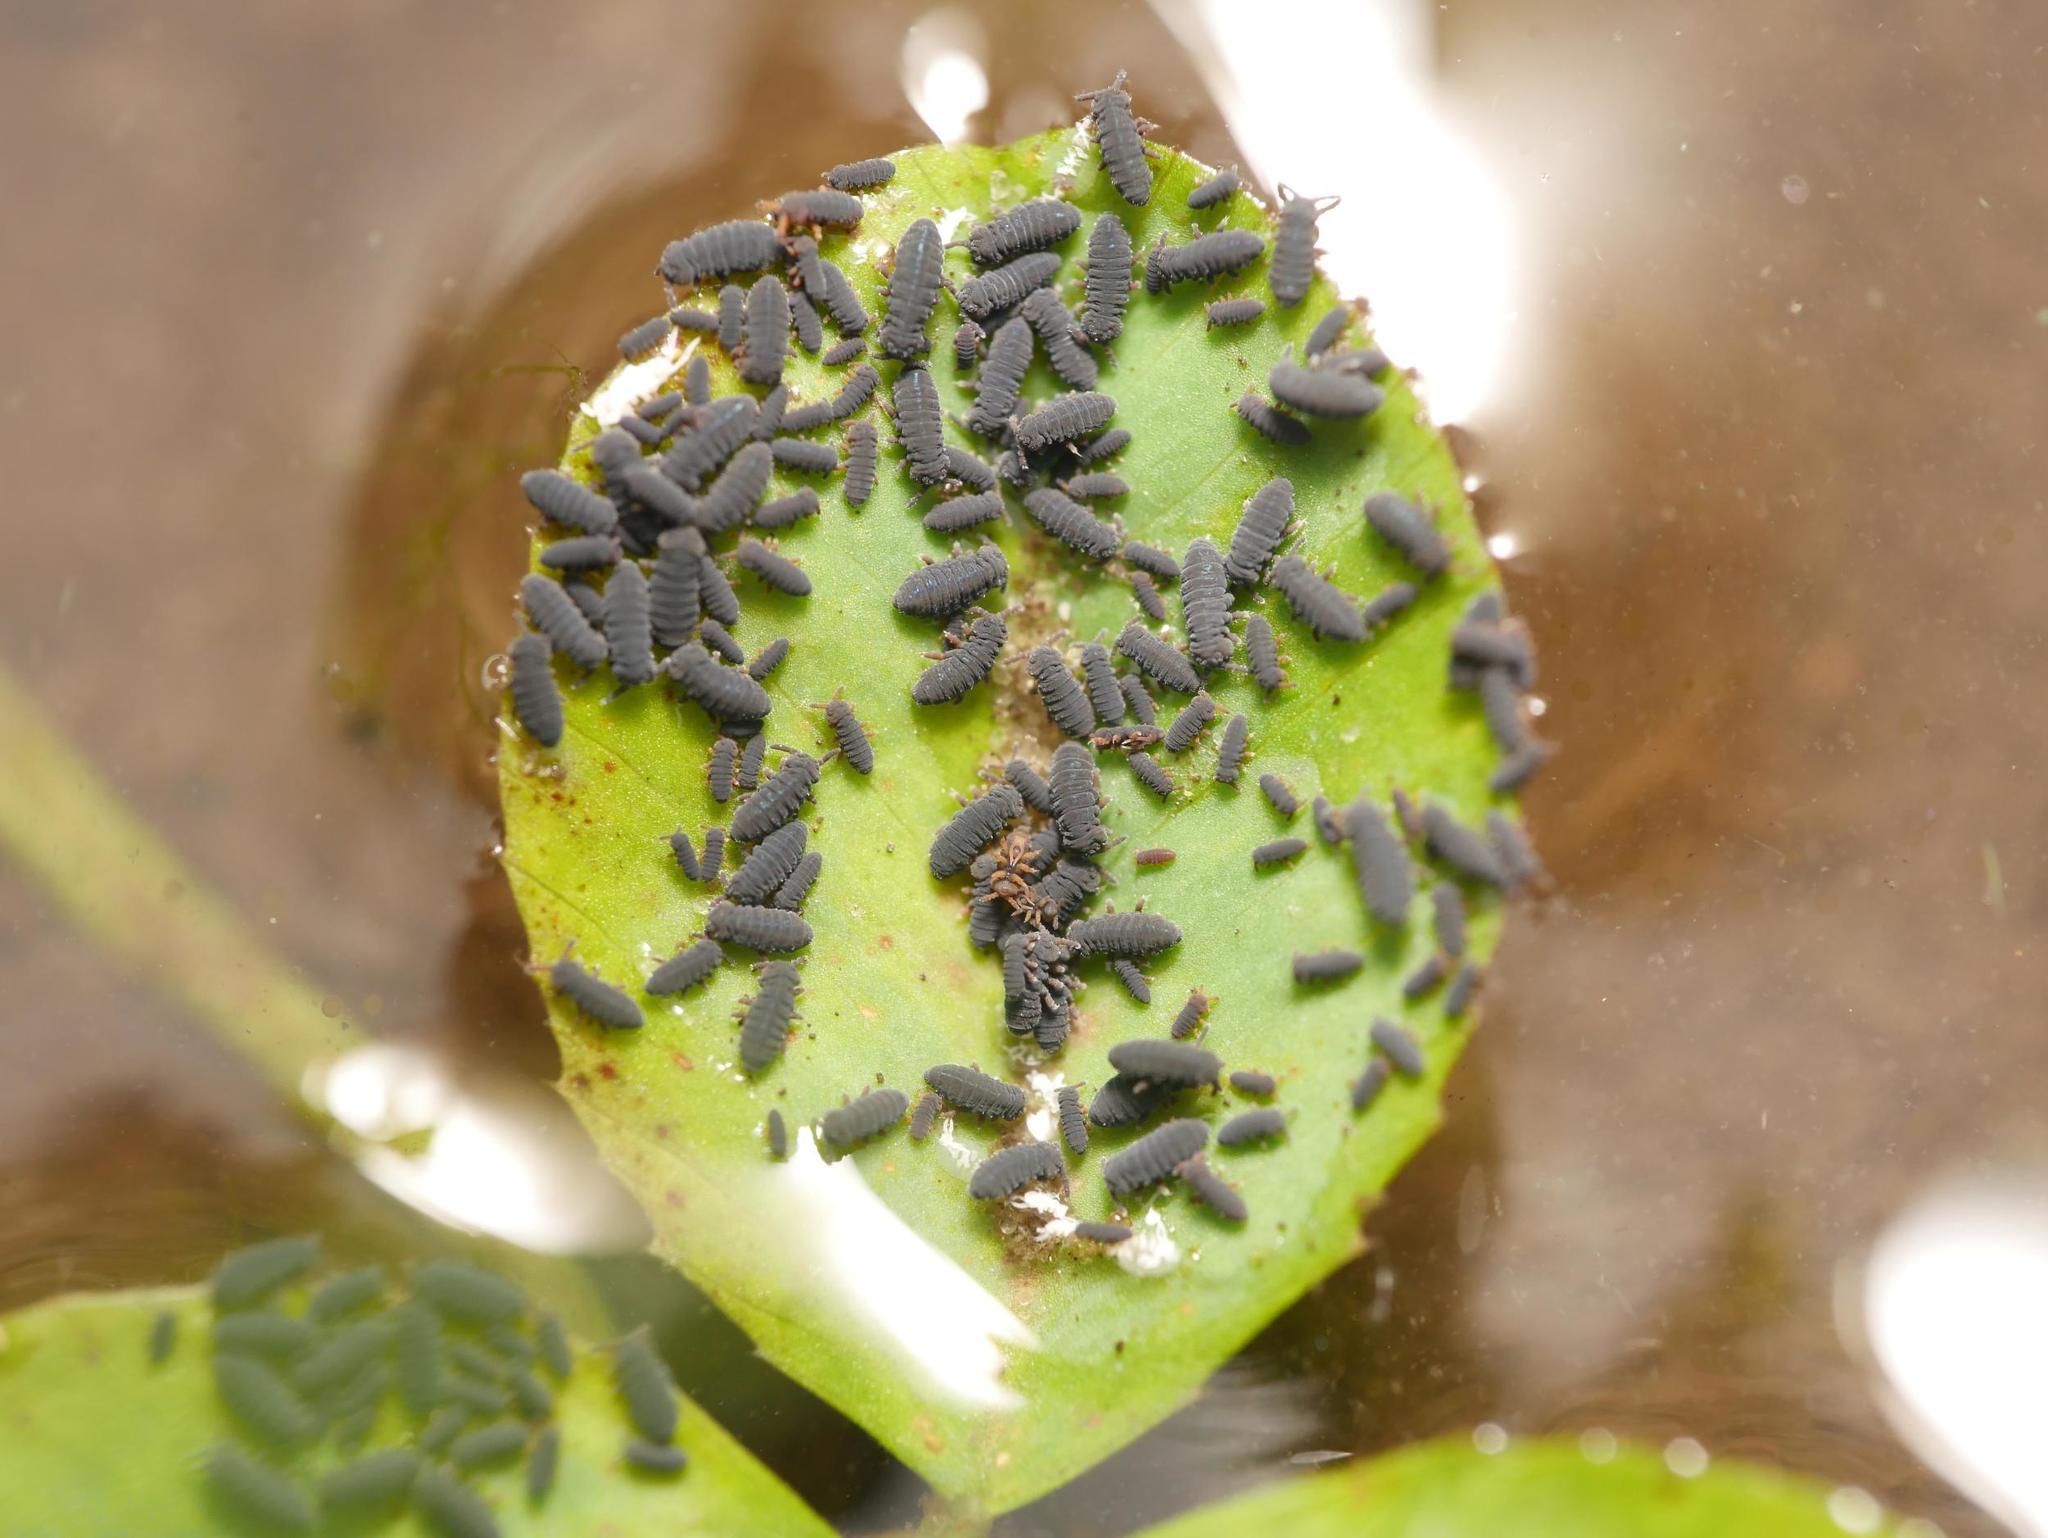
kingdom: Animalia
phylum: Arthropoda
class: Collembola
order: Poduromorpha
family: Poduridae
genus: Podura
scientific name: Podura aquatica
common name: Water springtail
